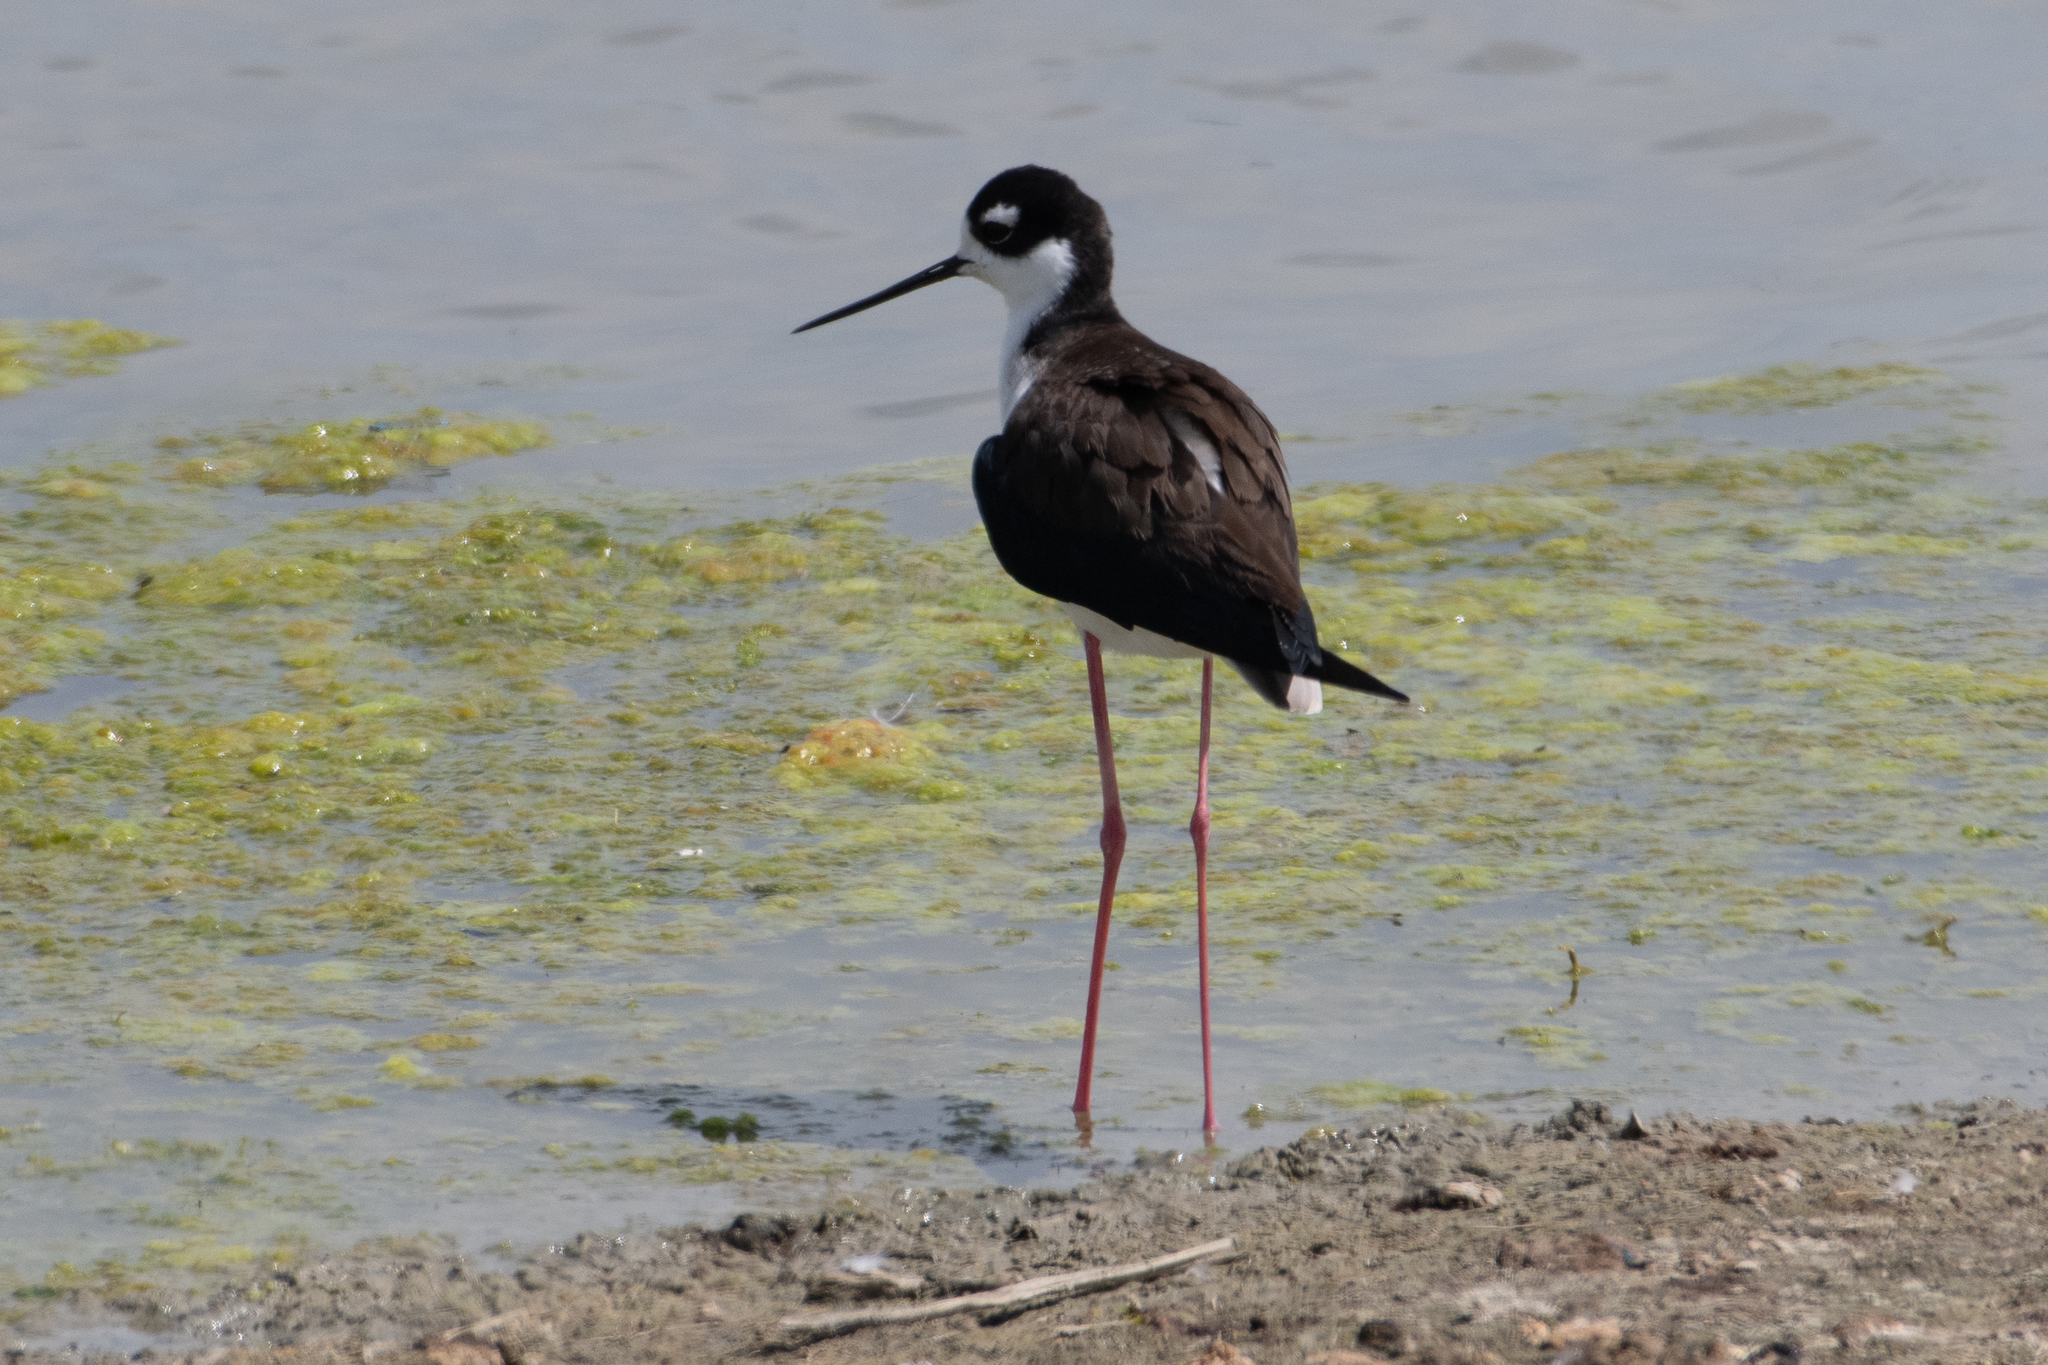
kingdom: Animalia
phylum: Chordata
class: Aves
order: Charadriiformes
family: Recurvirostridae
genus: Himantopus
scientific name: Himantopus mexicanus
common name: Black-necked stilt
